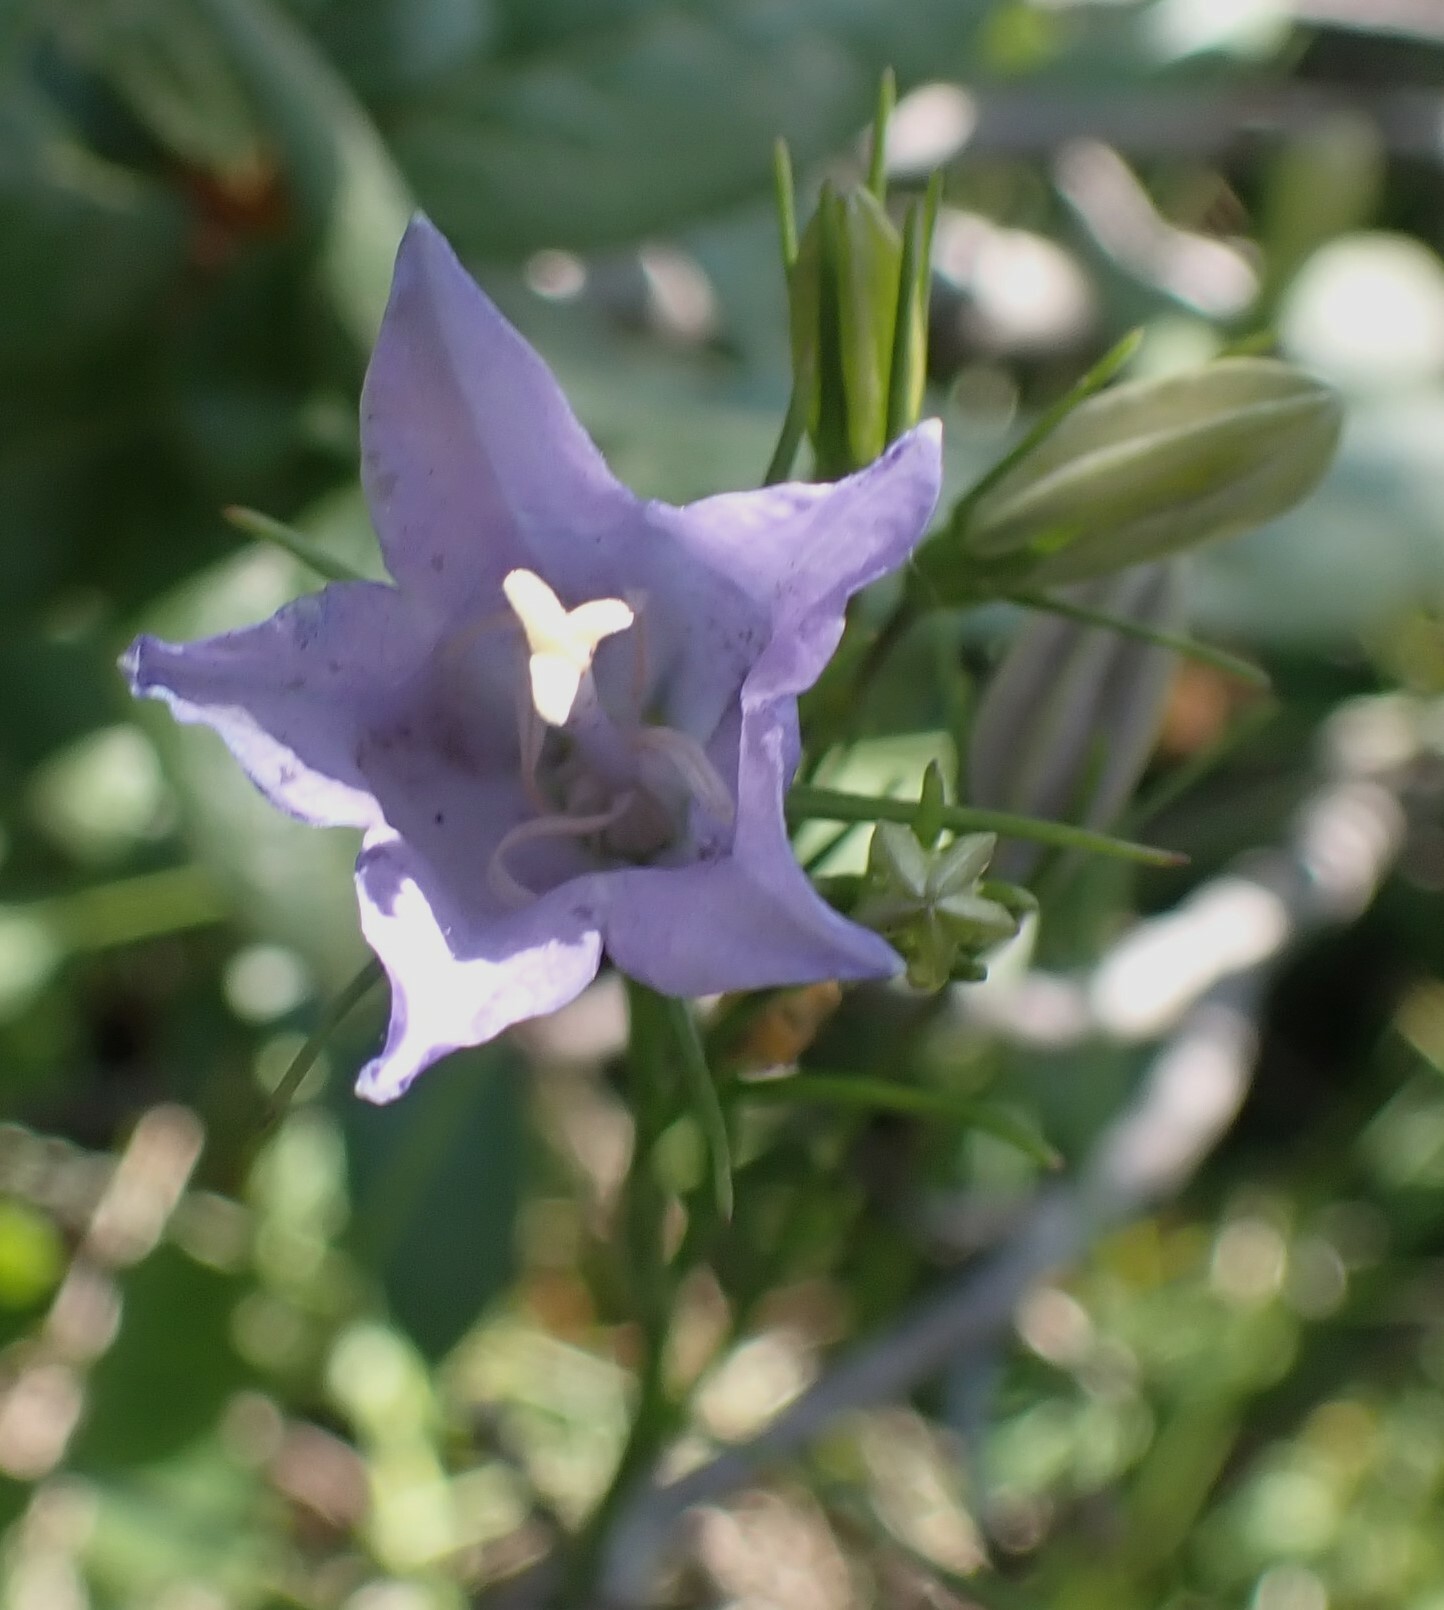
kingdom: Plantae
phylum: Tracheophyta
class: Magnoliopsida
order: Asterales
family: Campanulaceae
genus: Campanula
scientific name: Campanula alaskana
